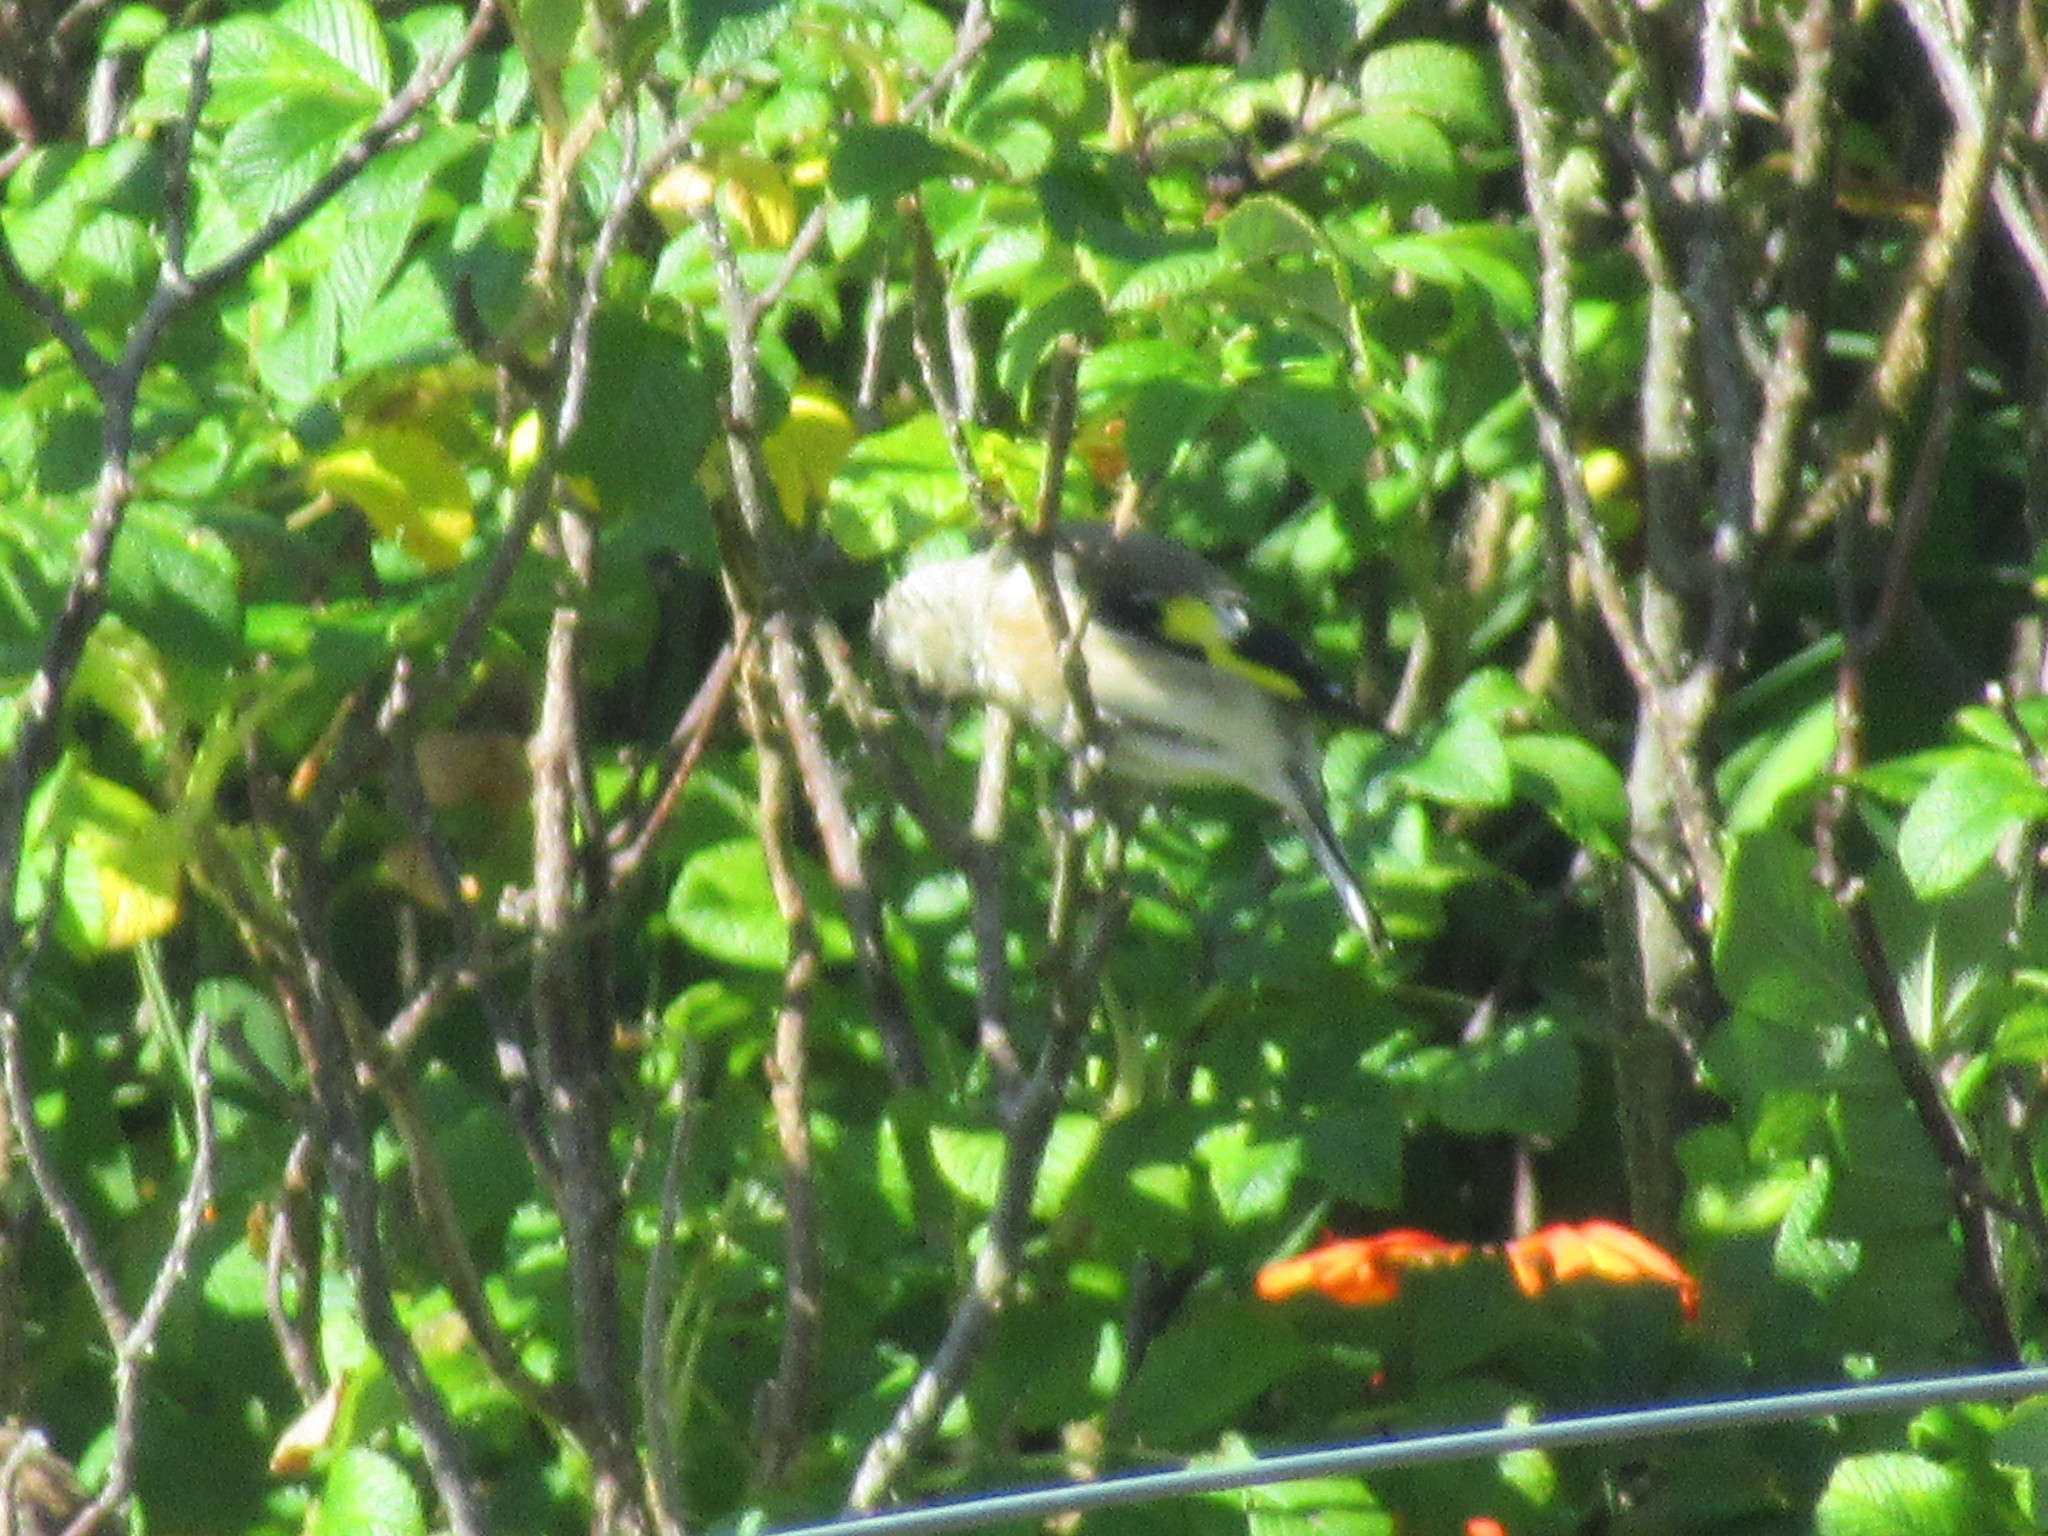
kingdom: Animalia
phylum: Chordata
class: Aves
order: Passeriformes
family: Fringillidae
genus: Carduelis
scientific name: Carduelis carduelis
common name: European goldfinch
